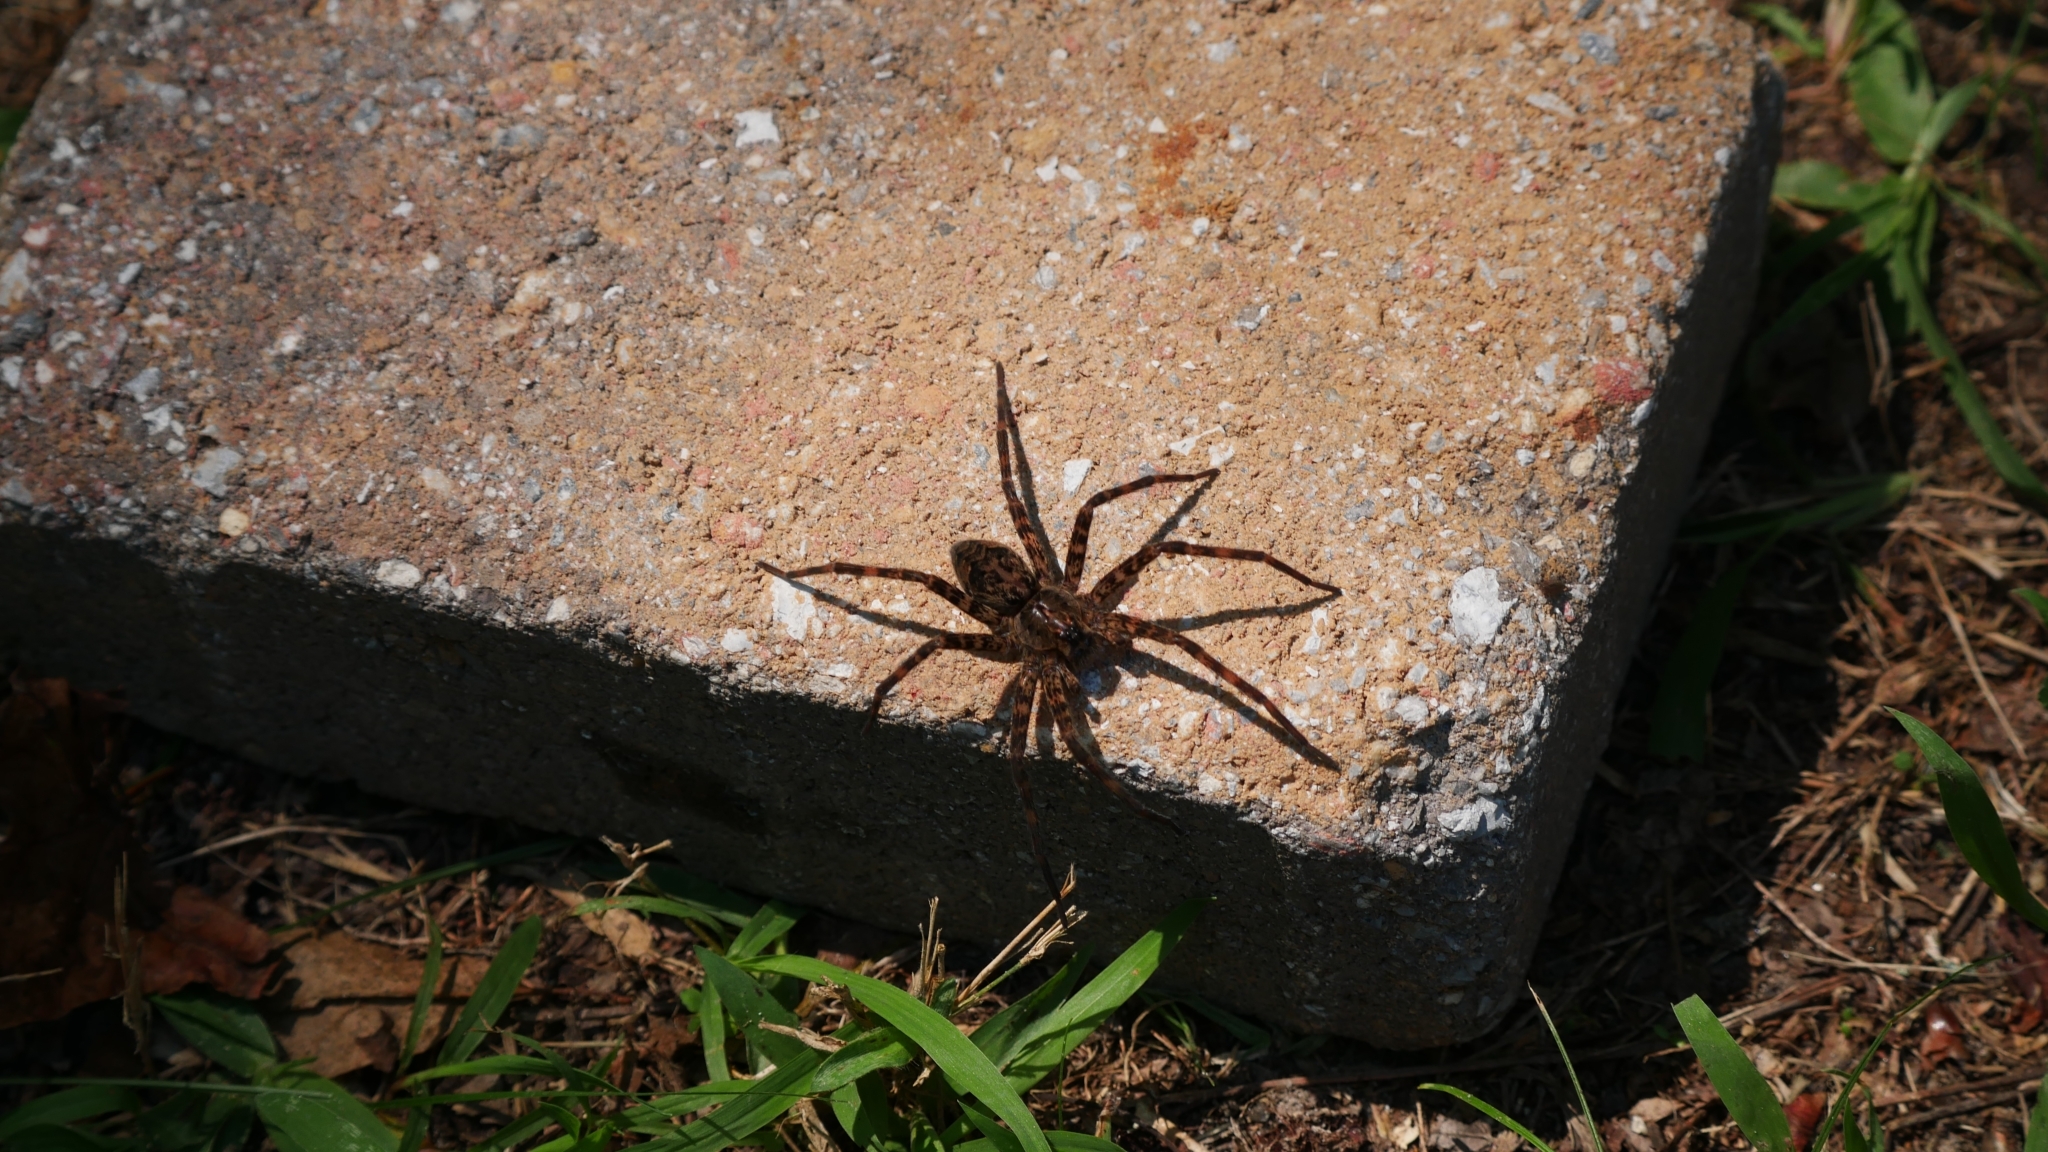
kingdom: Animalia
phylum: Arthropoda
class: Arachnida
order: Araneae
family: Pisauridae
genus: Dolomedes
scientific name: Dolomedes tenebrosus
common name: Dark fishing spider
